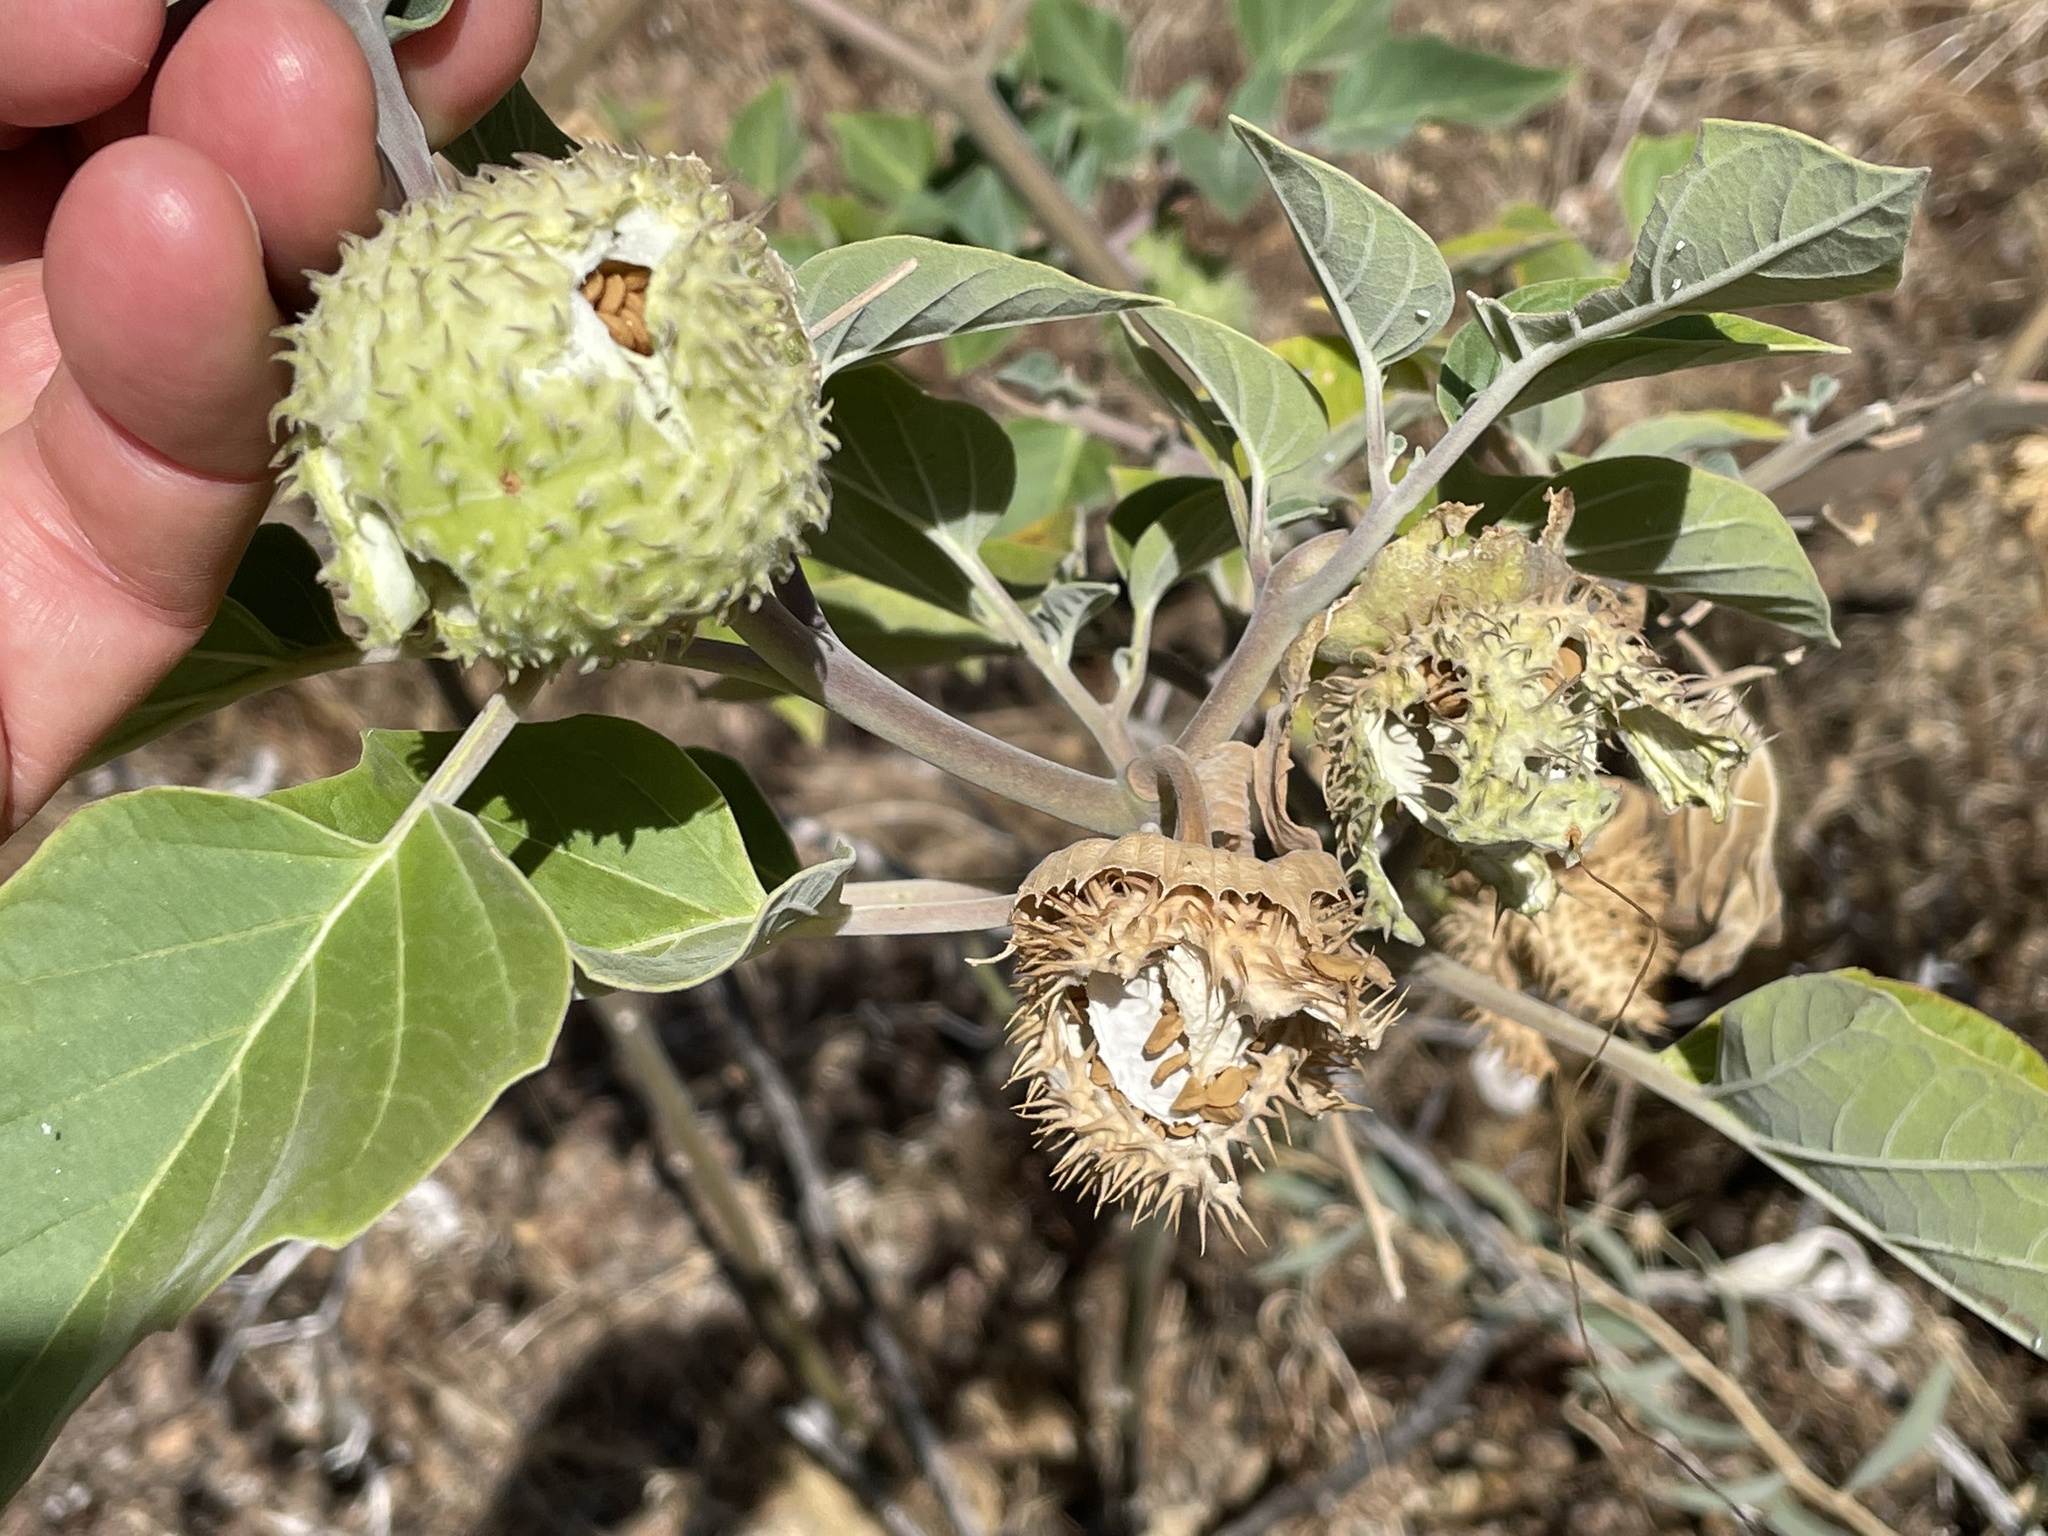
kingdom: Plantae
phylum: Tracheophyta
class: Magnoliopsida
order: Solanales
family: Solanaceae
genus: Datura
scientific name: Datura wrightii
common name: Sacred thorn-apple
